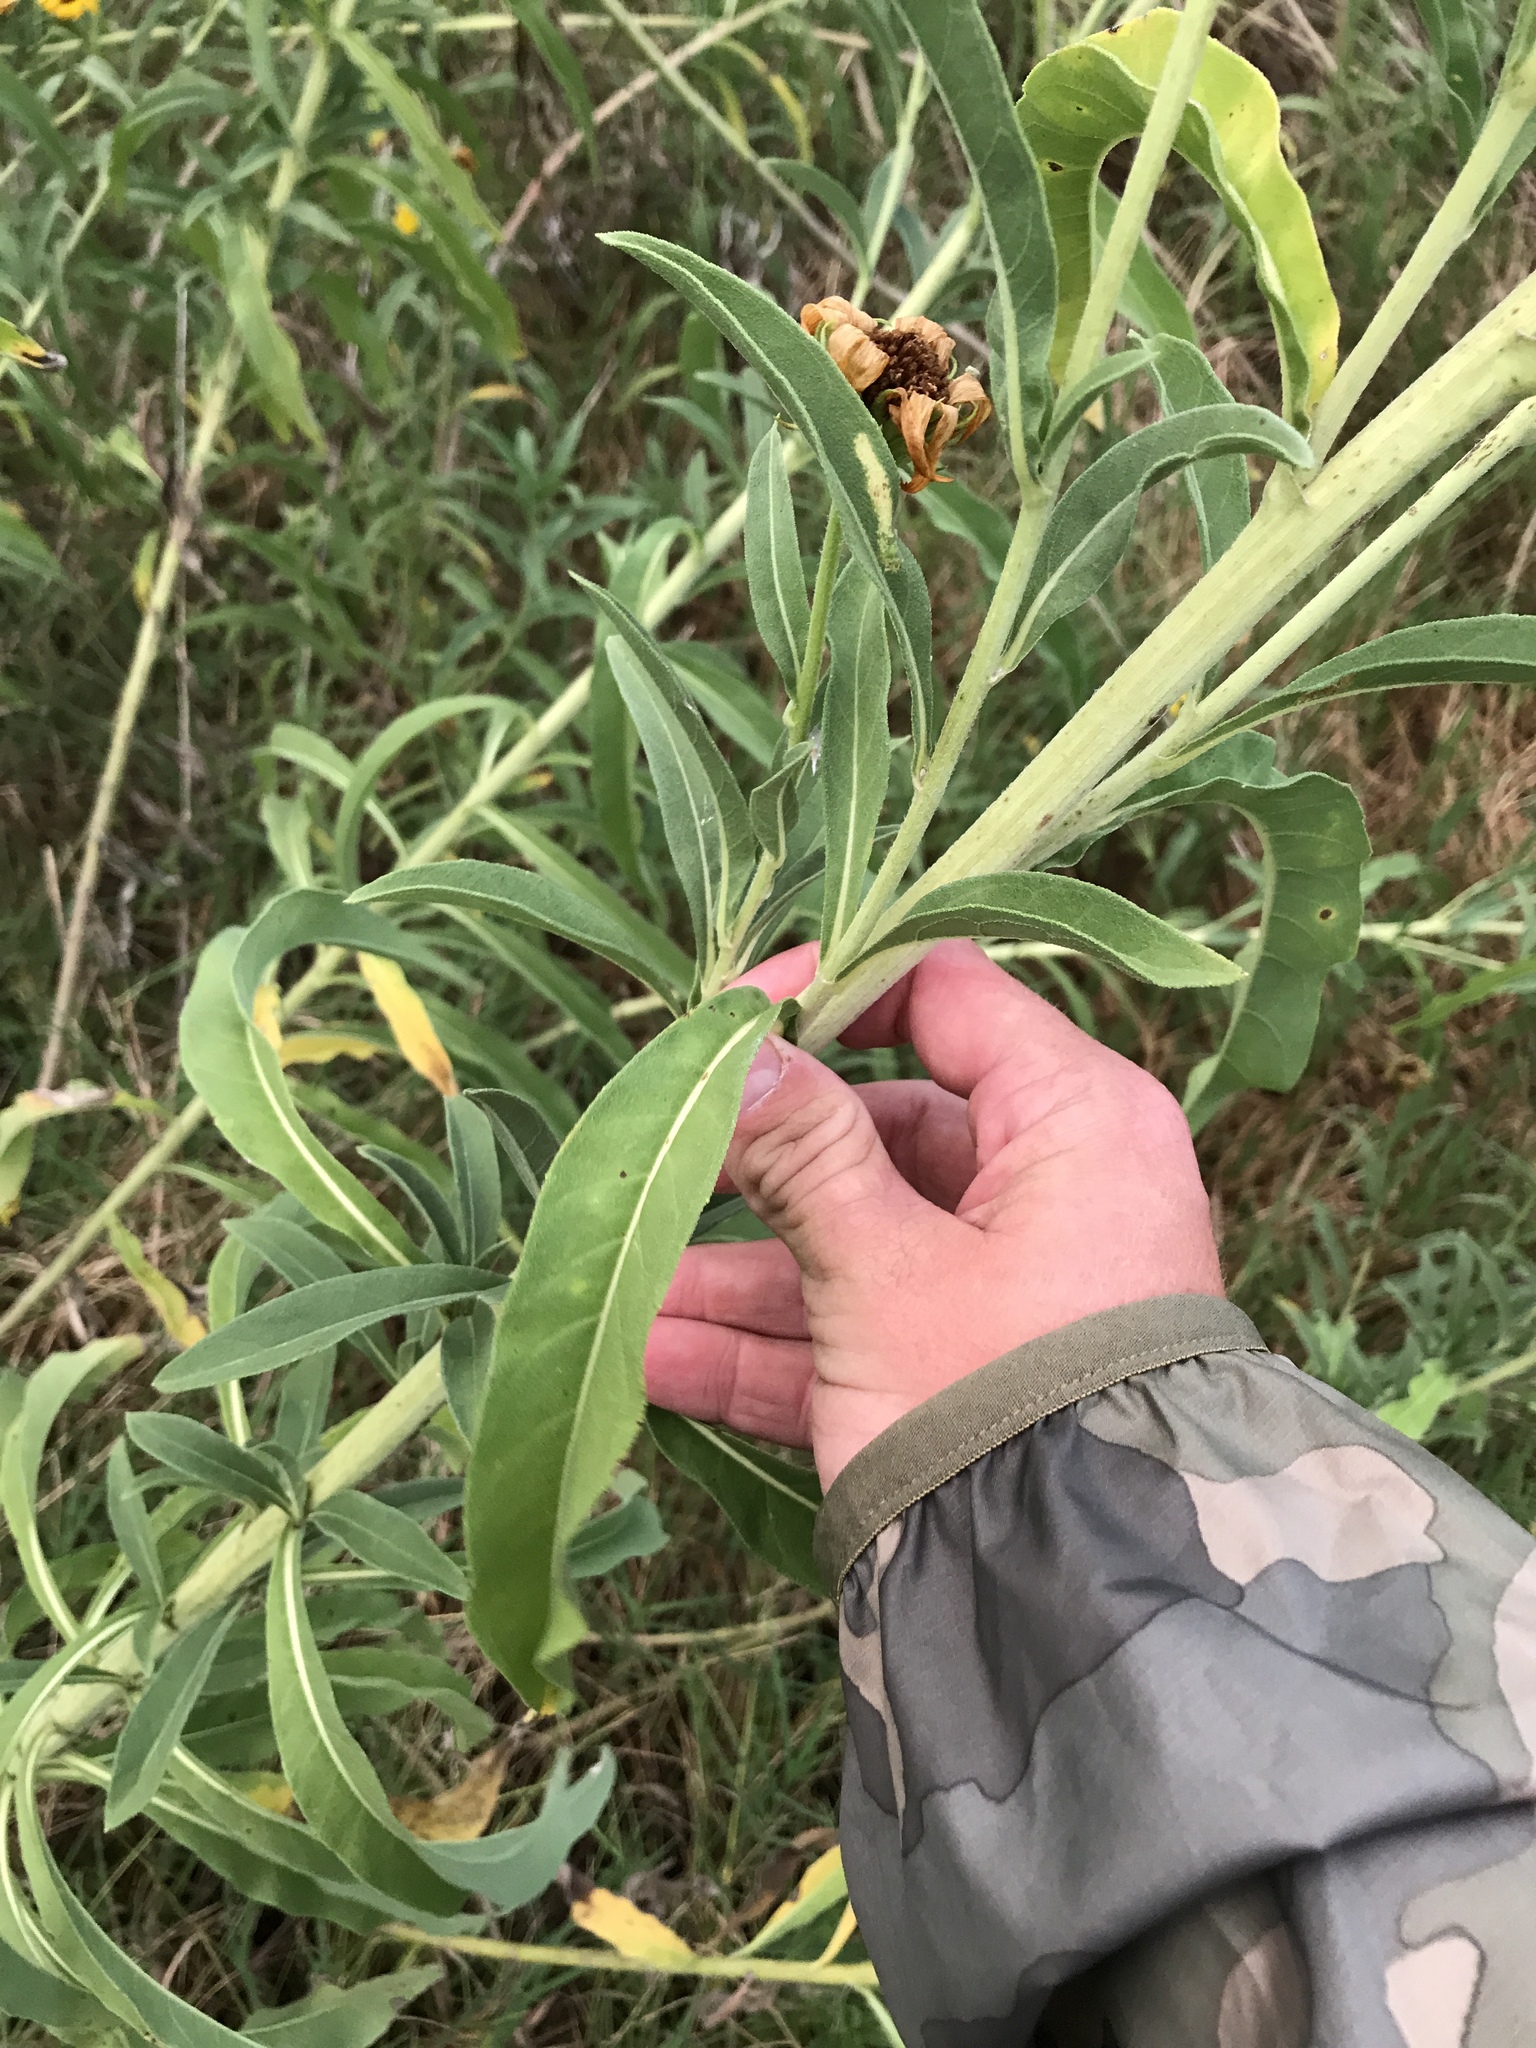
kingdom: Plantae
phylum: Tracheophyta
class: Magnoliopsida
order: Asterales
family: Asteraceae
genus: Helianthus
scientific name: Helianthus maximiliani
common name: Maximilian's sunflower
